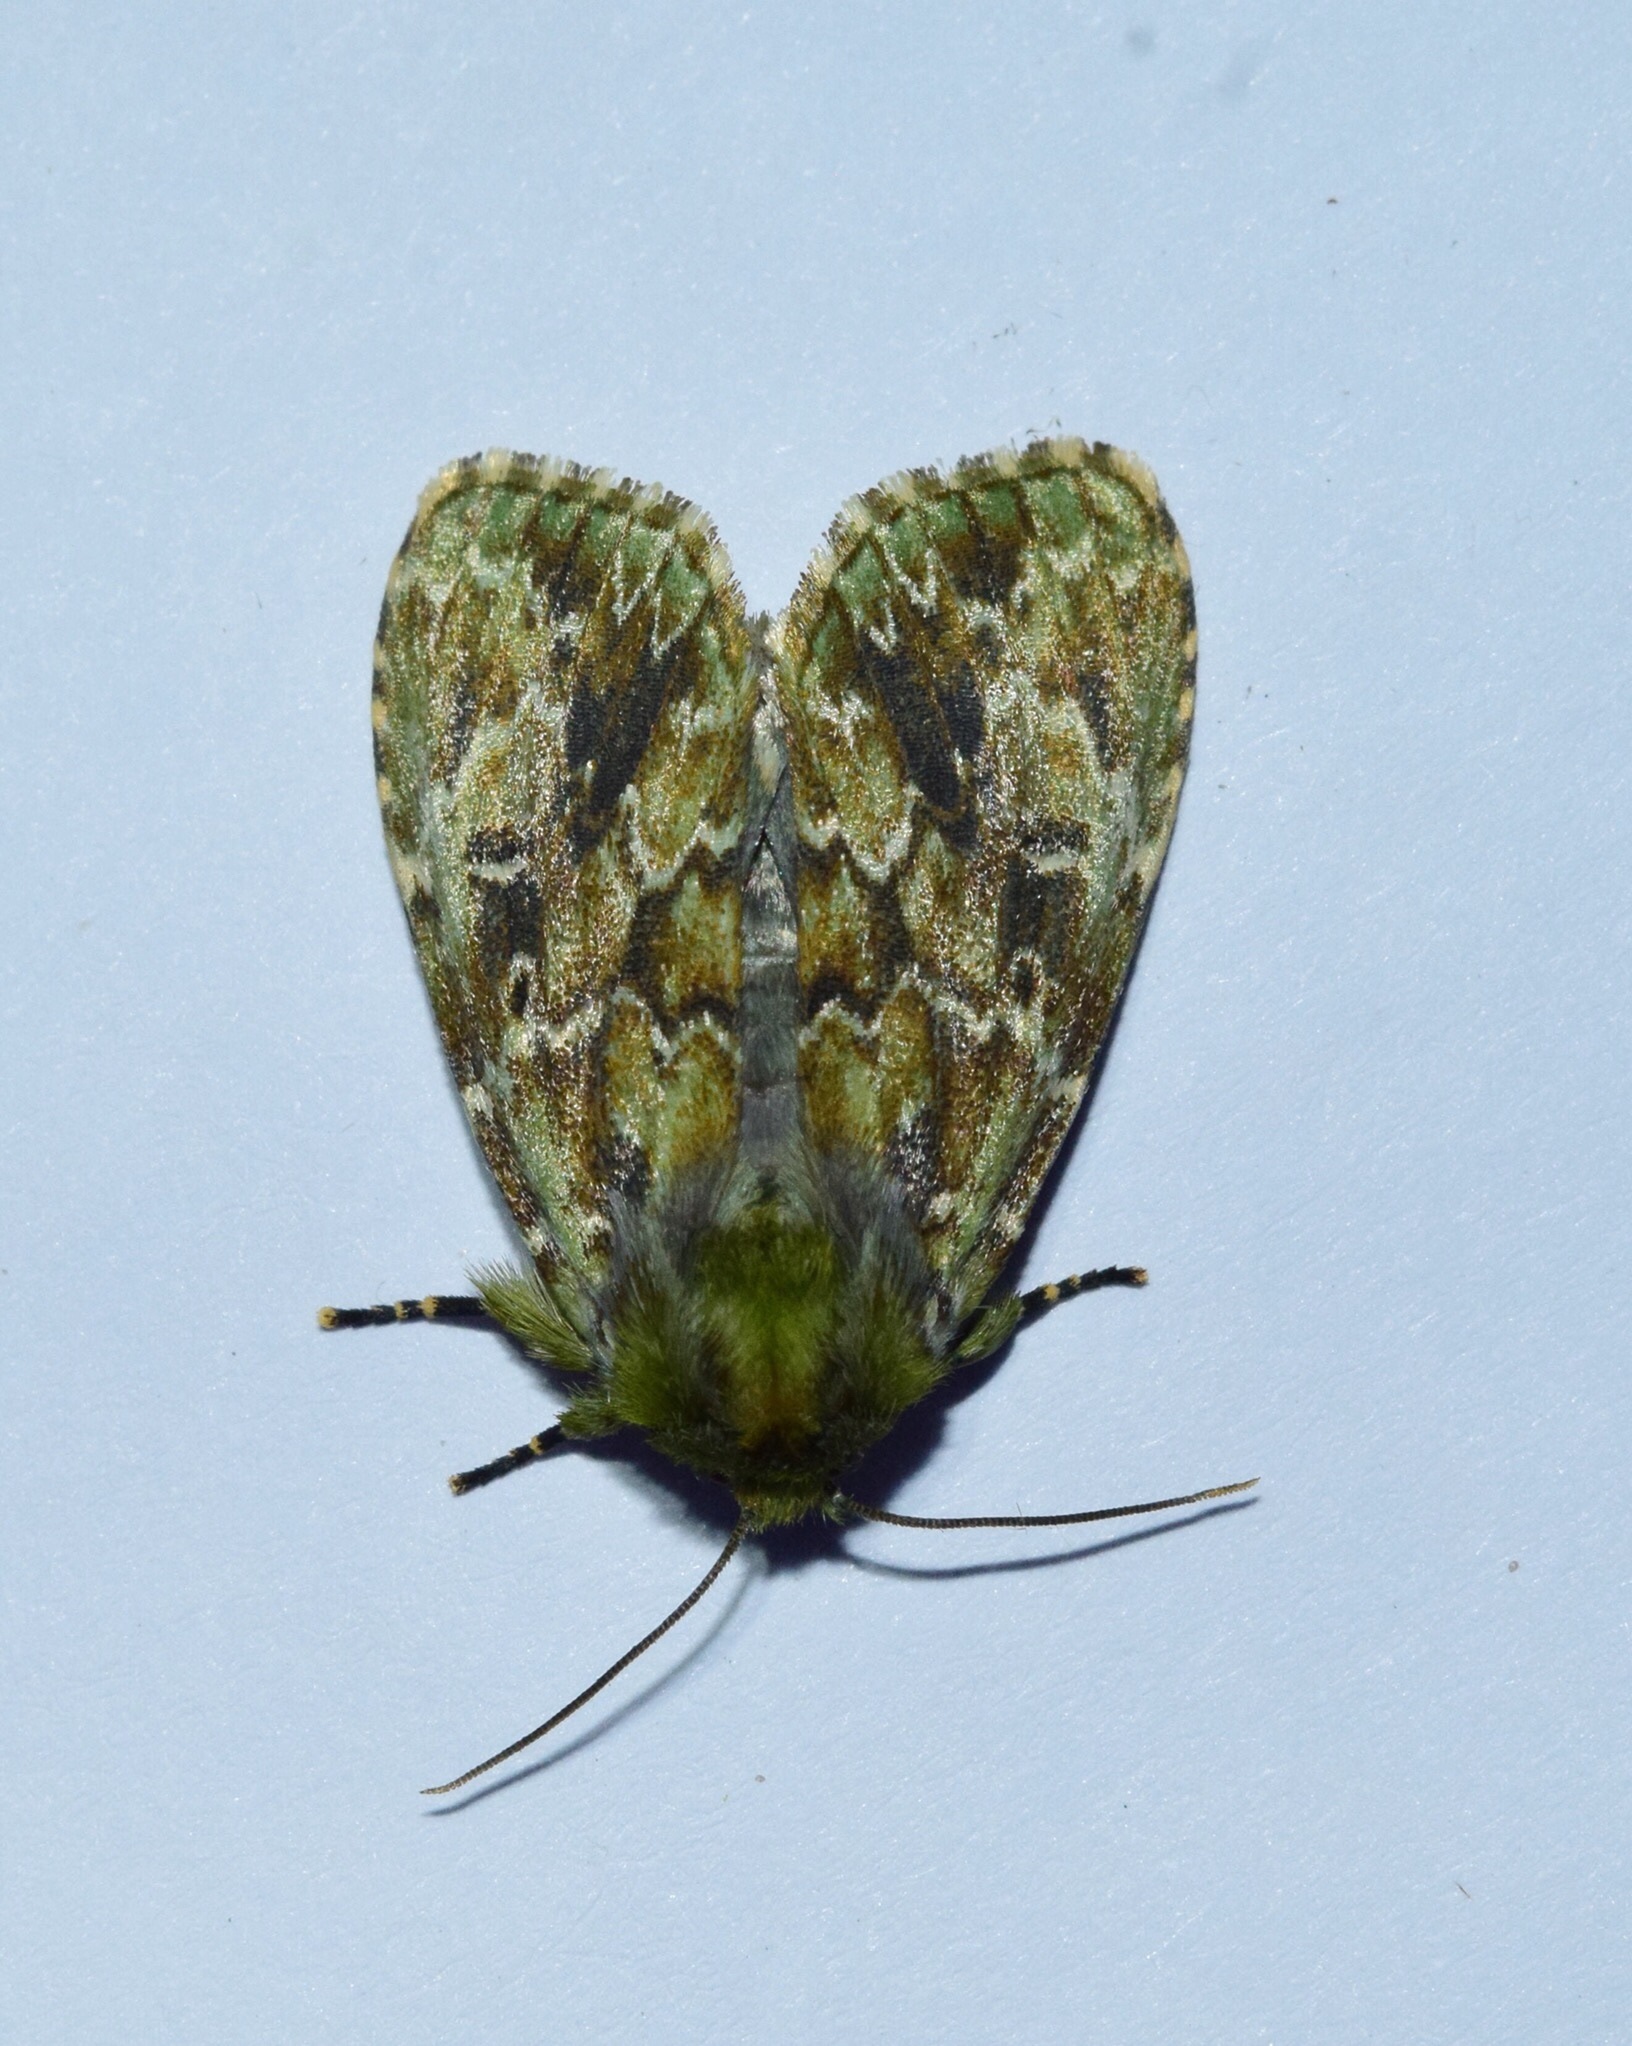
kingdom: Animalia
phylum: Arthropoda
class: Insecta
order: Lepidoptera
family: Noctuidae
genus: Nyodes
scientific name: Nyodes acatharta
